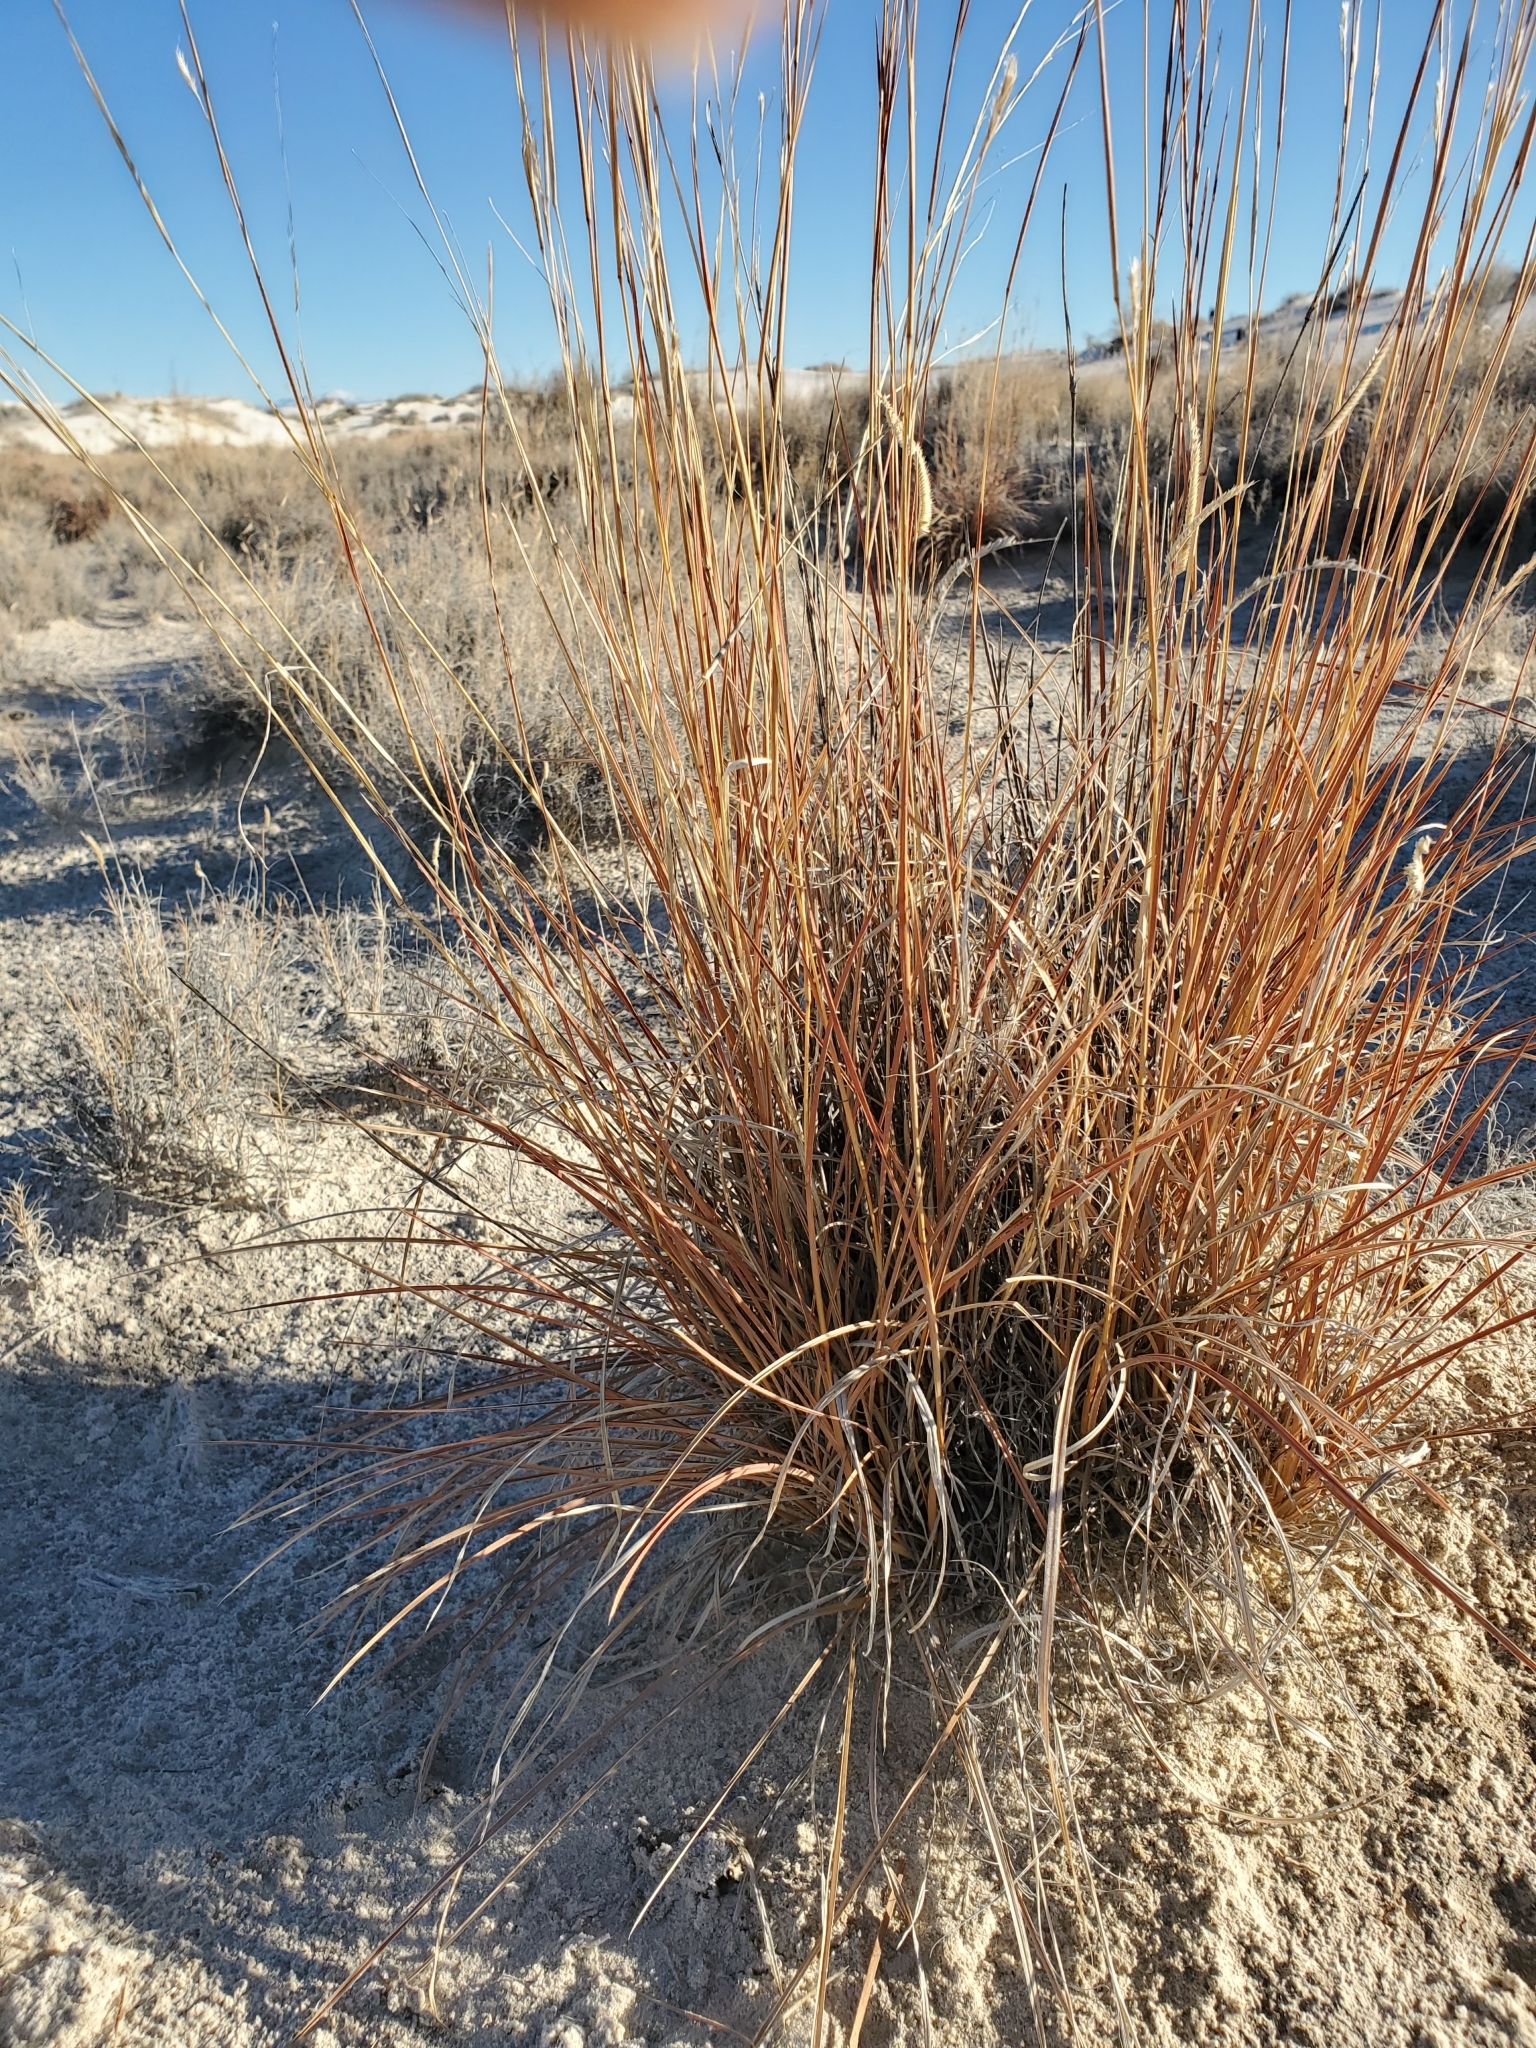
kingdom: Plantae
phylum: Tracheophyta
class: Liliopsida
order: Poales
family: Poaceae
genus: Schizachyrium
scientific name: Schizachyrium scoparium
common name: Little bluestem
